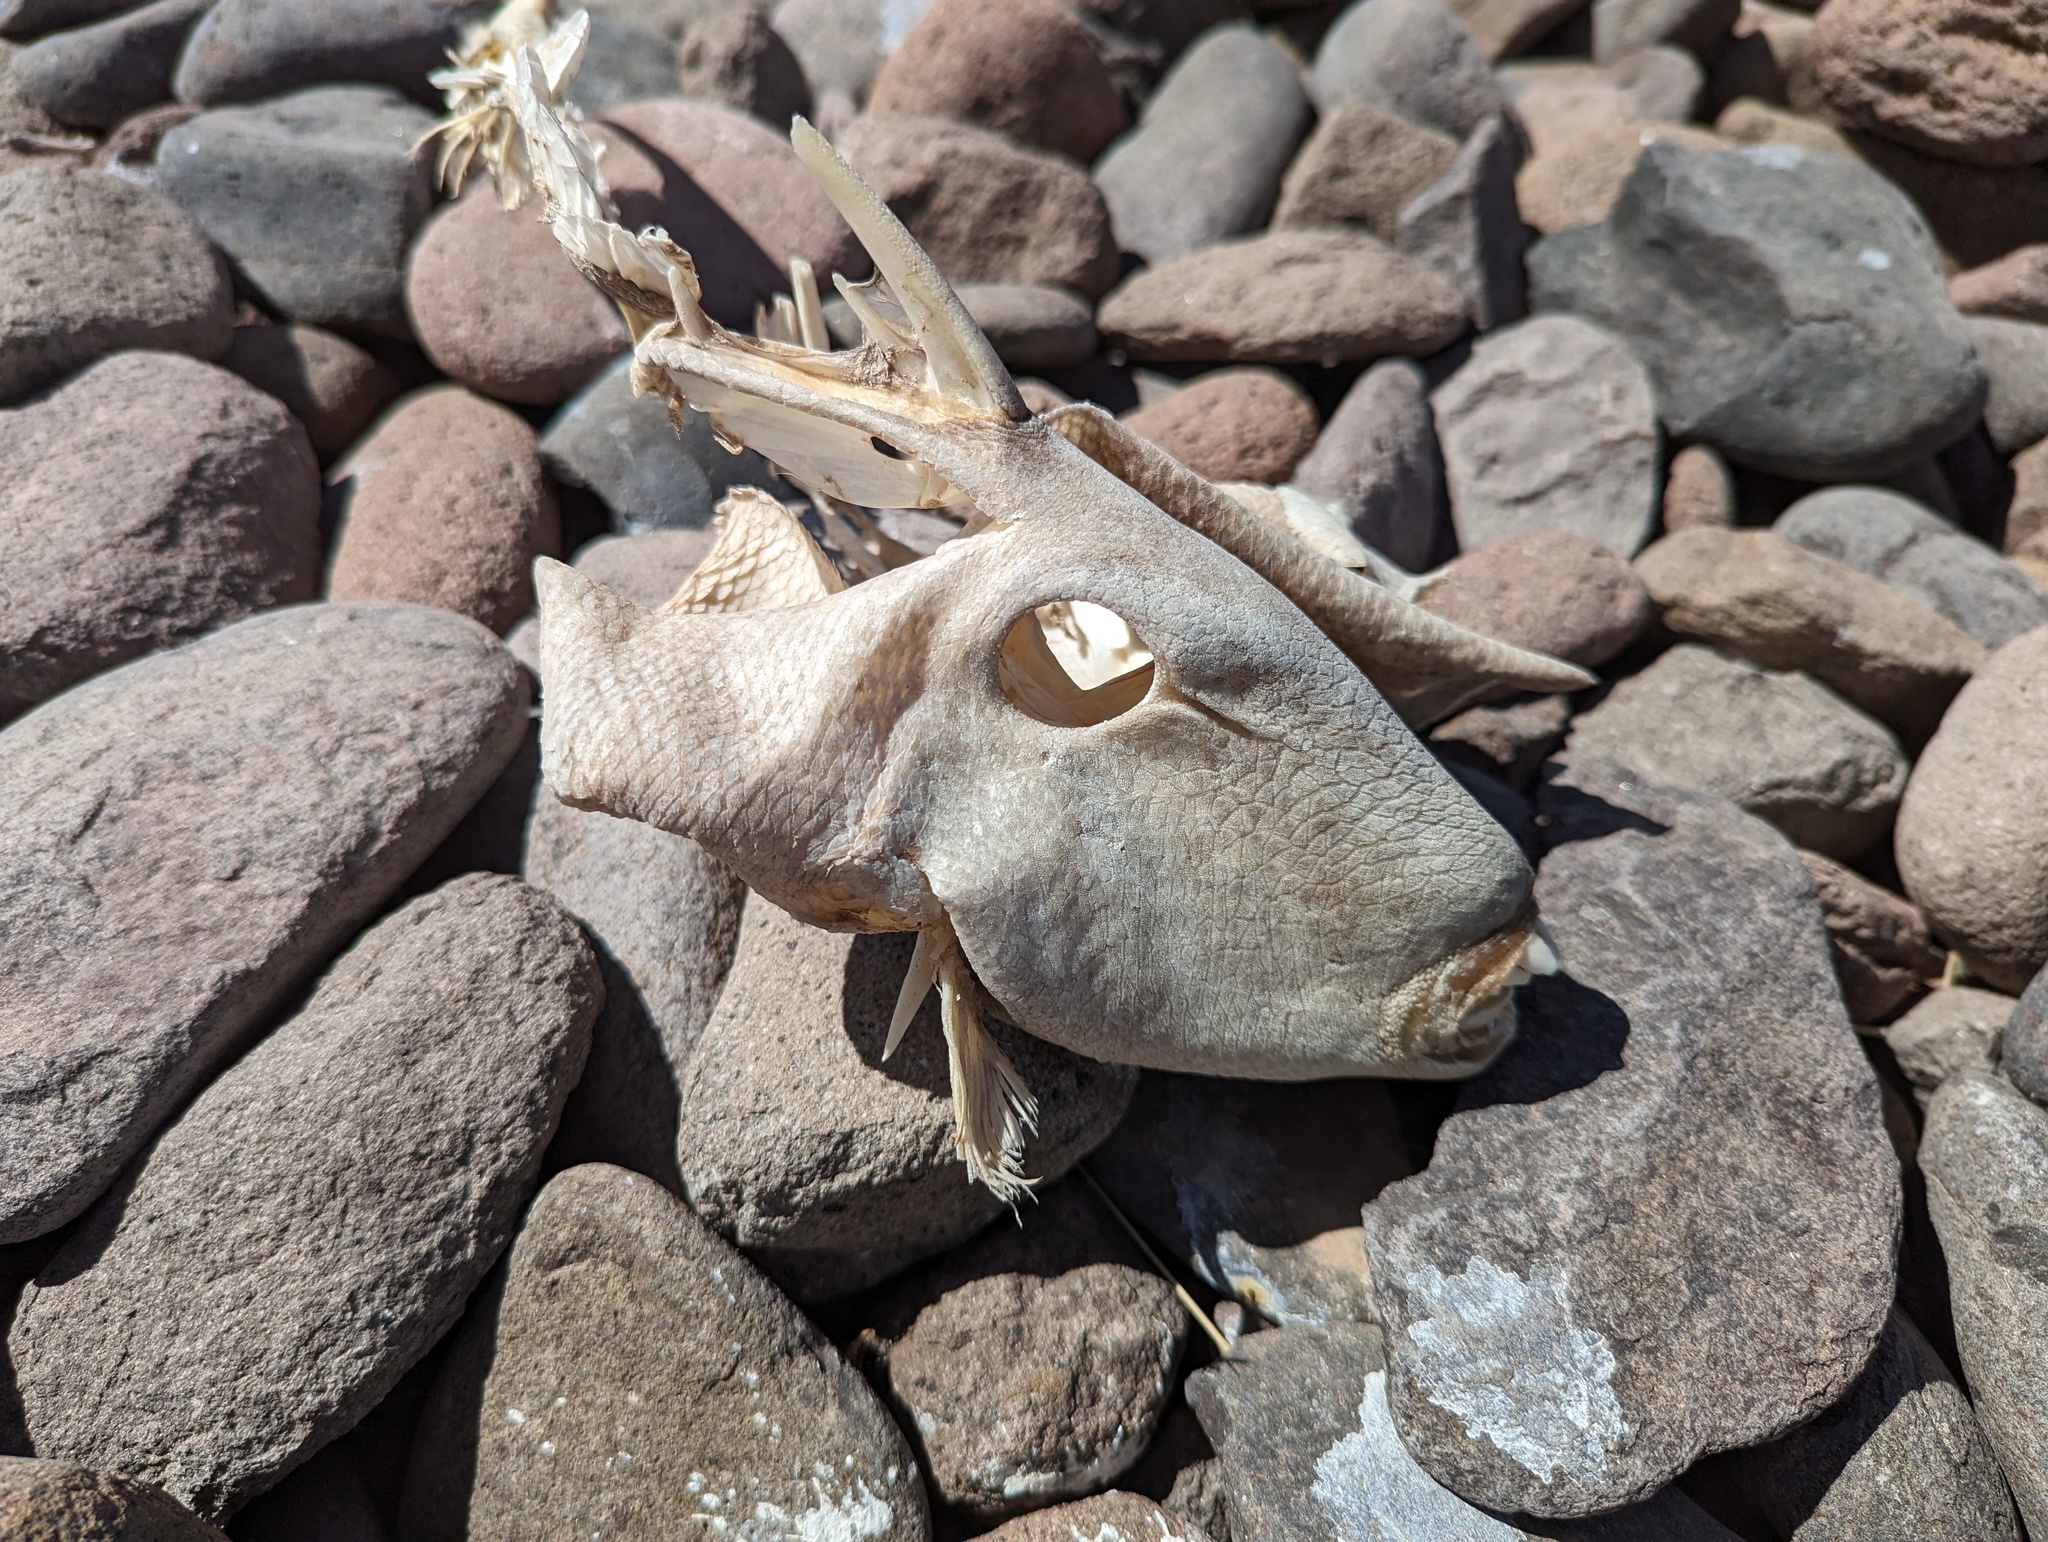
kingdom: Animalia
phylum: Chordata
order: Tetraodontiformes
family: Balistidae
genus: Balistes
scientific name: Balistes polylepis
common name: Finescale triggerfish
